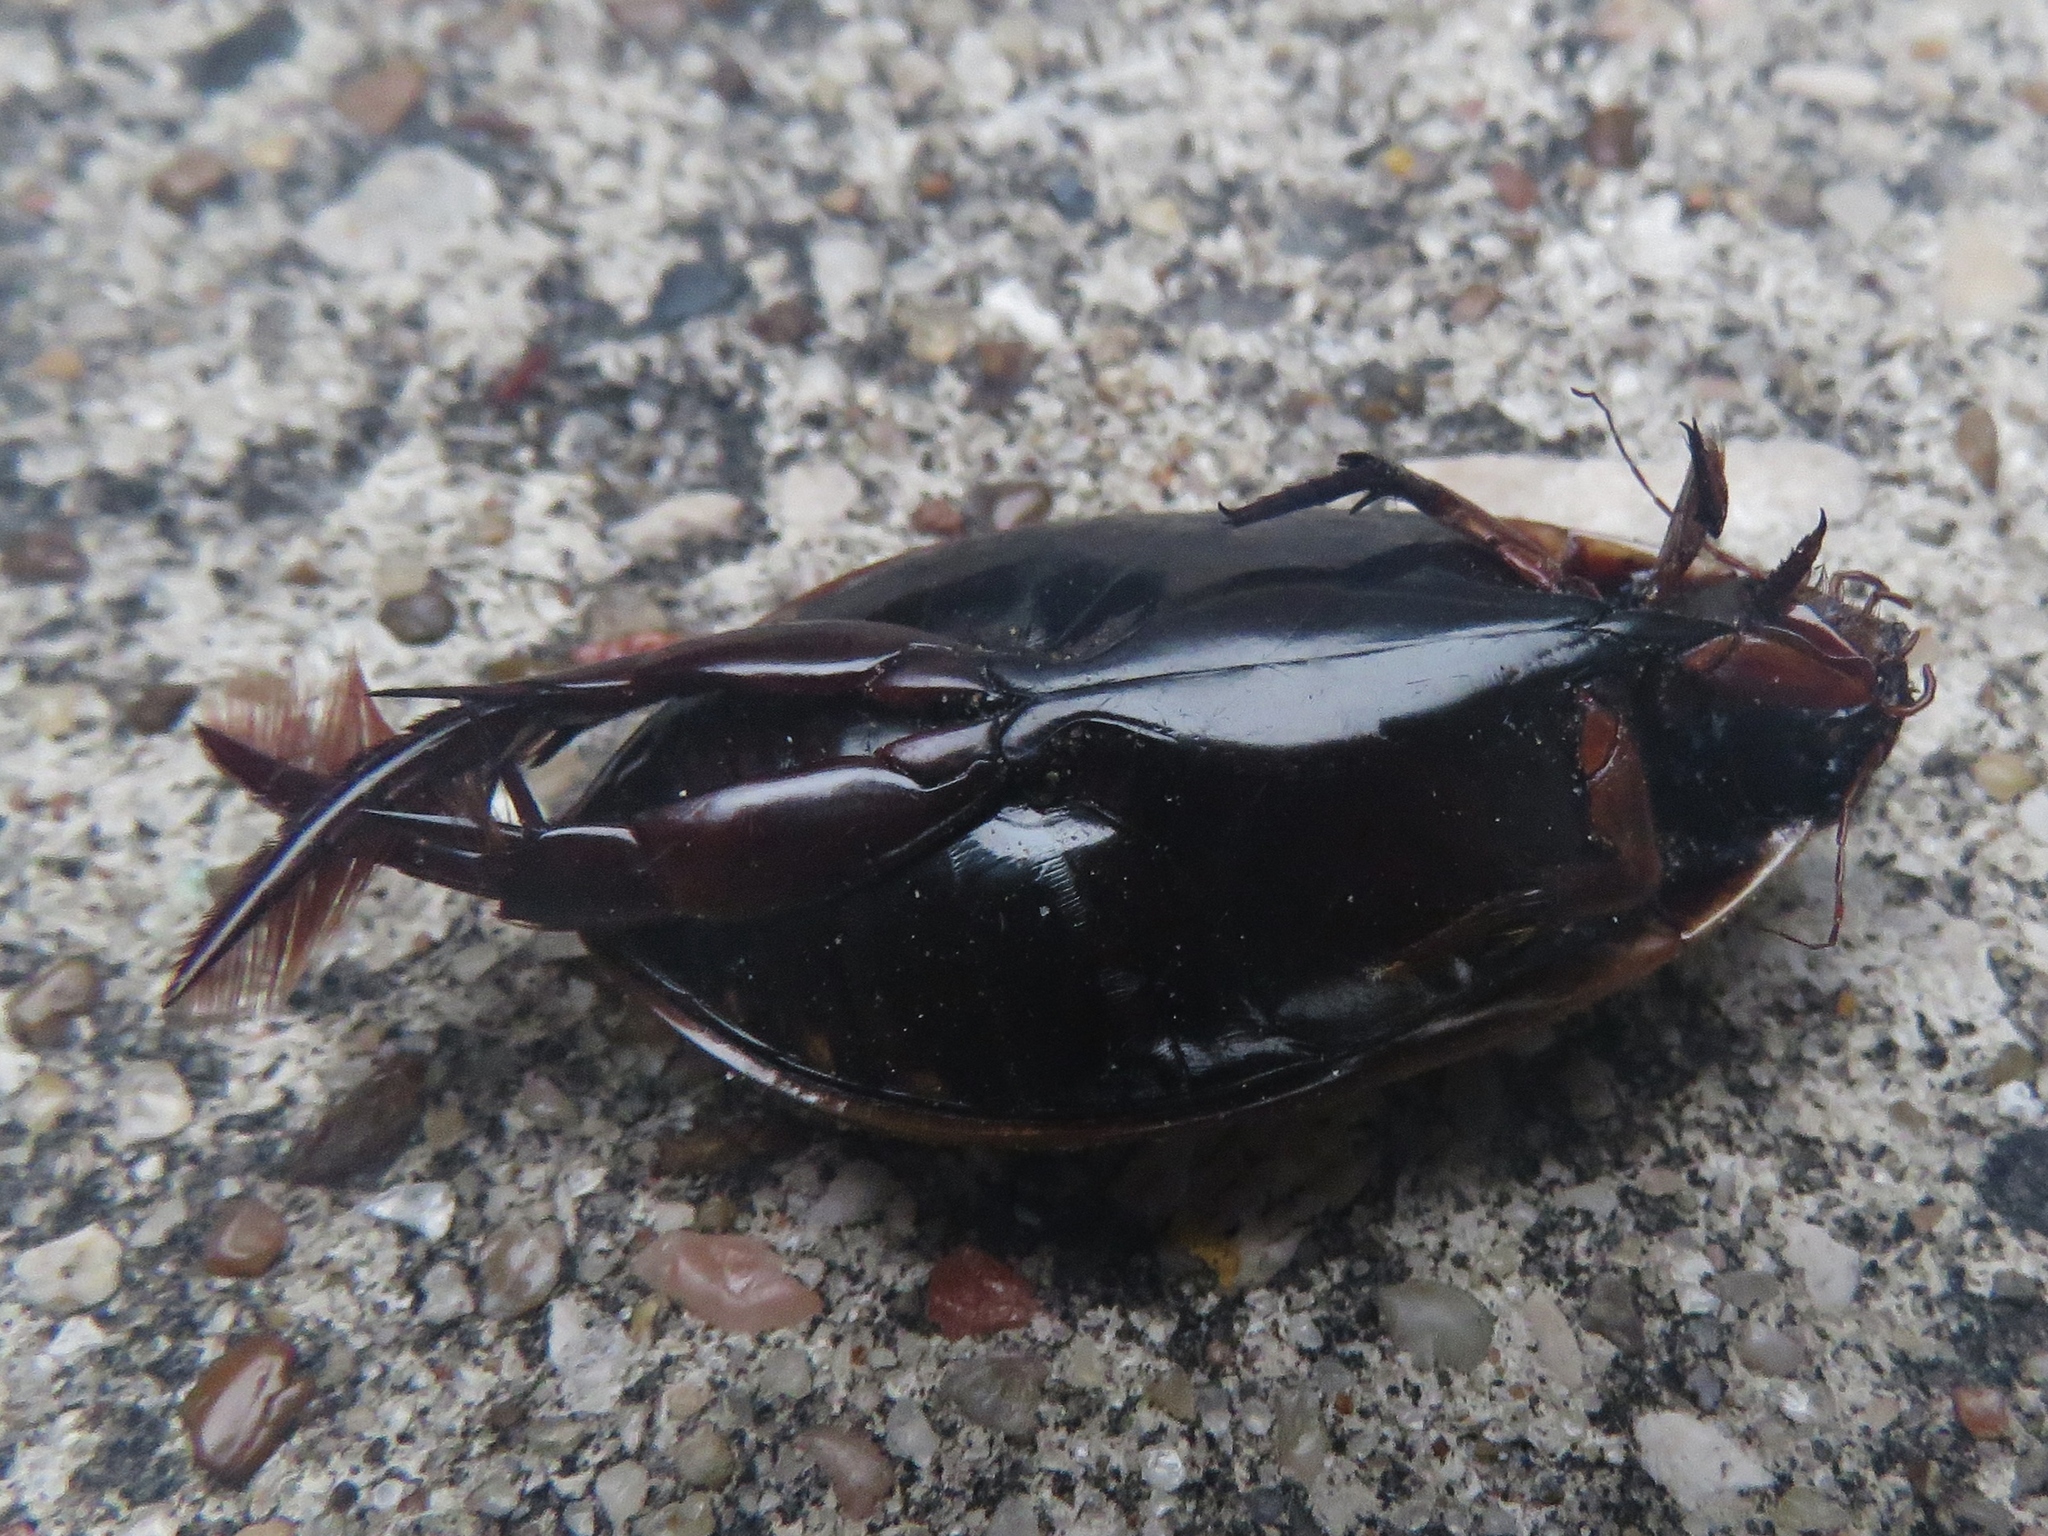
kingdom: Animalia
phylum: Arthropoda
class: Insecta
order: Coleoptera
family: Dytiscidae
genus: Cybister
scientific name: Cybister fimbriolatus
